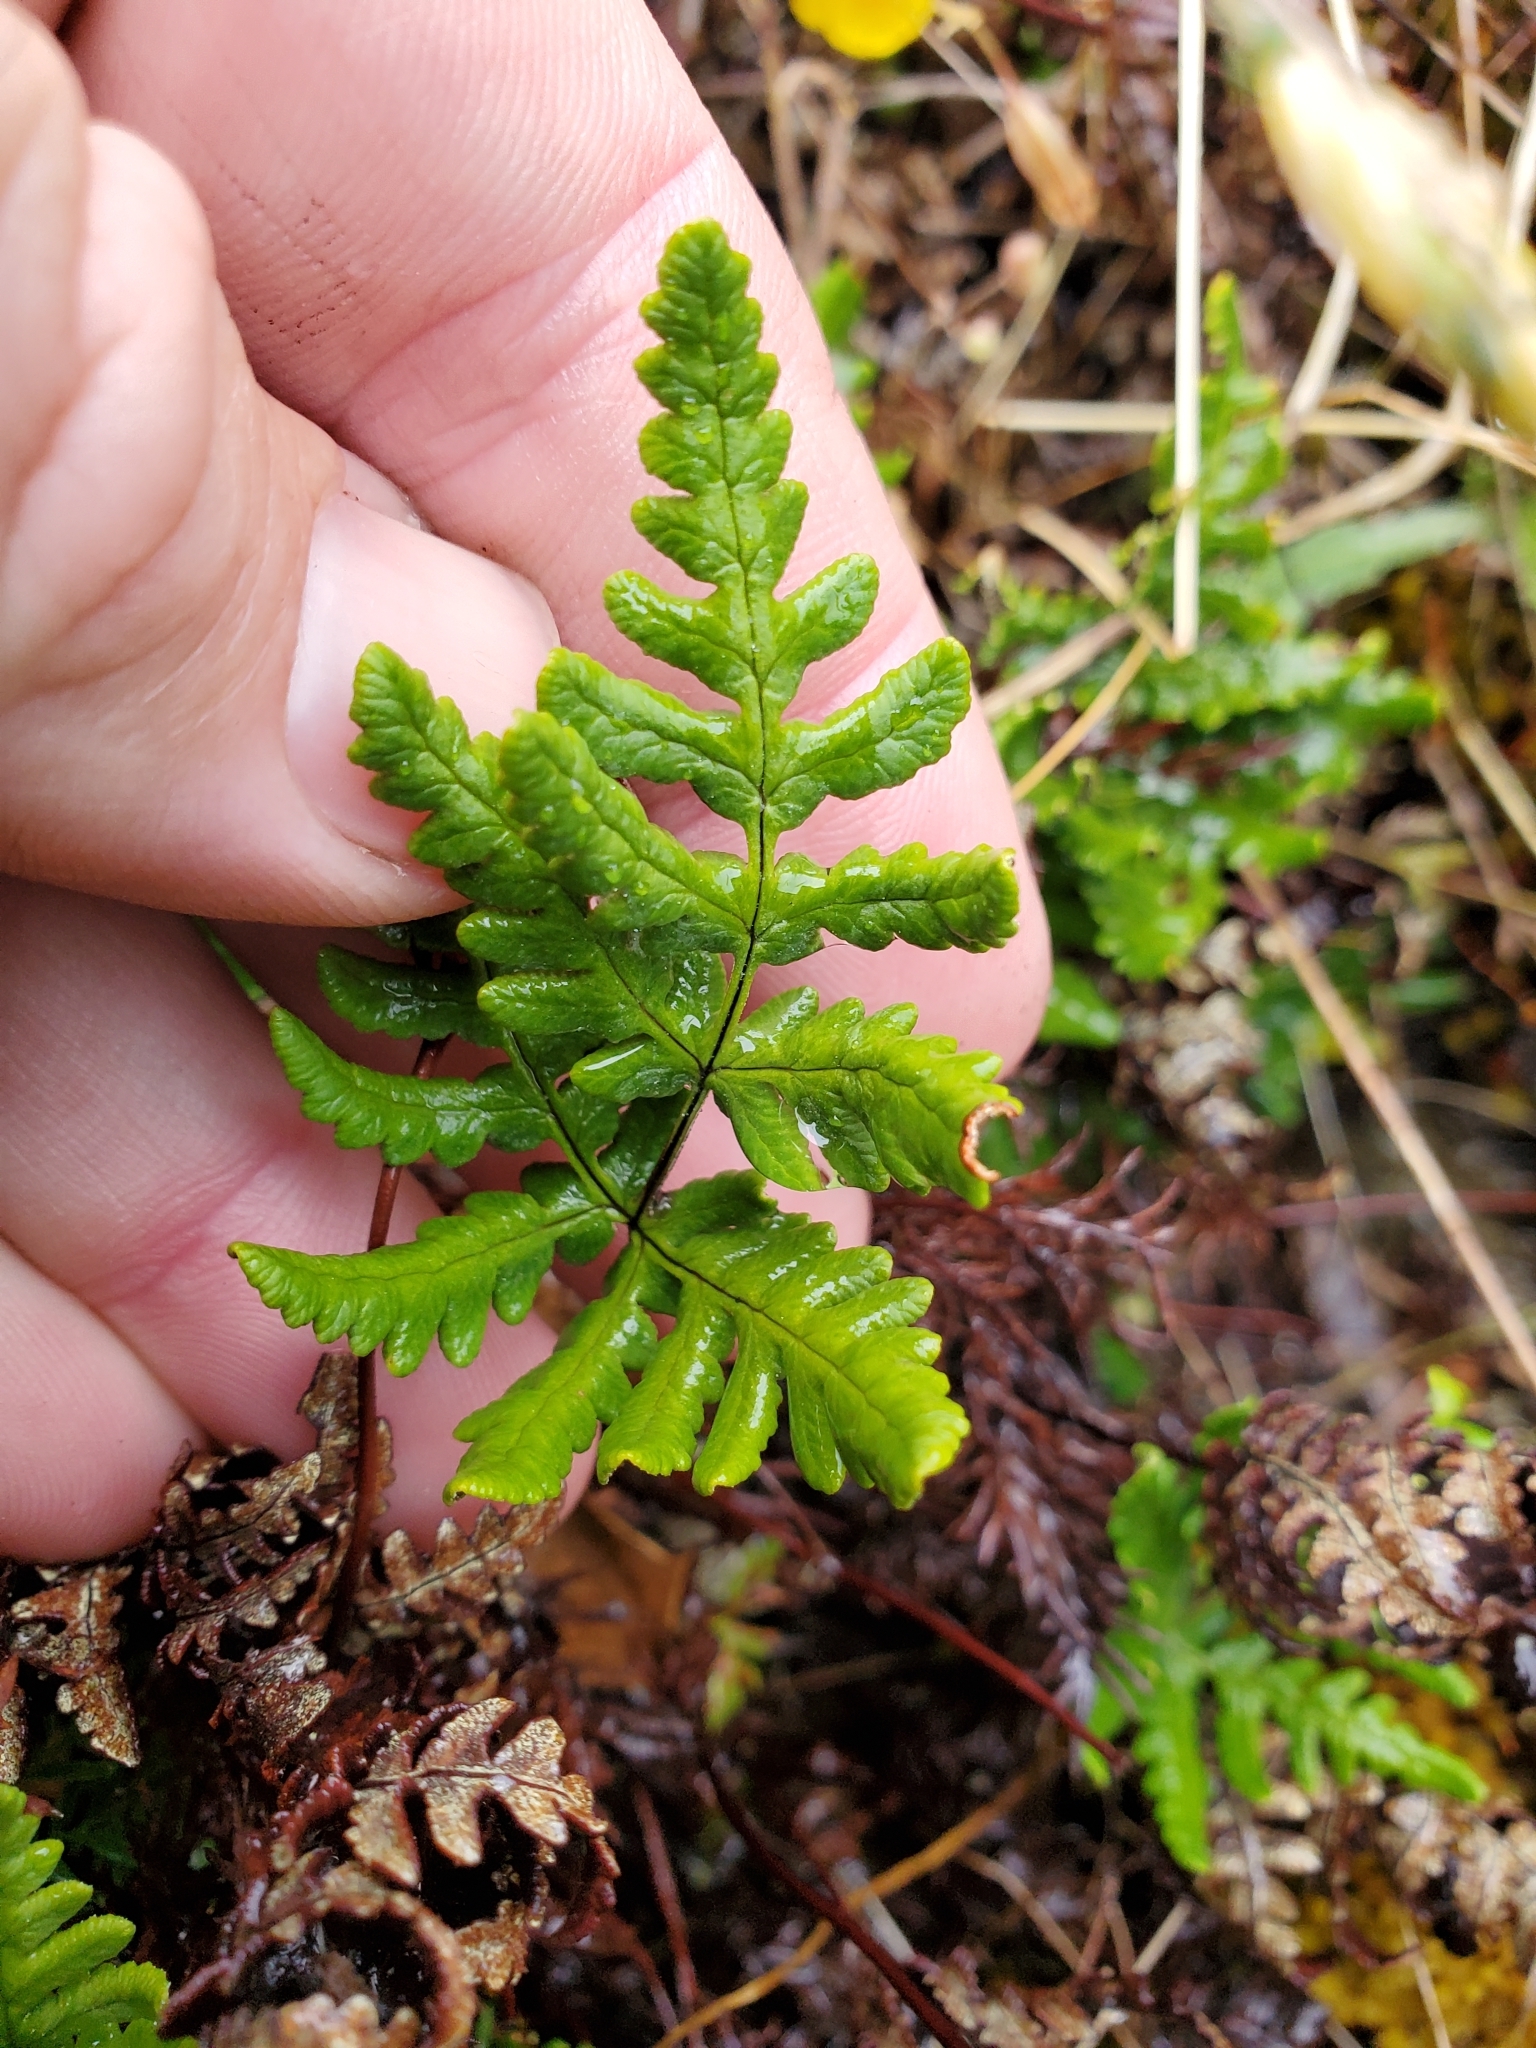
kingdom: Plantae
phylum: Tracheophyta
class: Polypodiopsida
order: Polypodiales
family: Pteridaceae
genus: Pentagramma
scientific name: Pentagramma triangularis
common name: Gold fern
